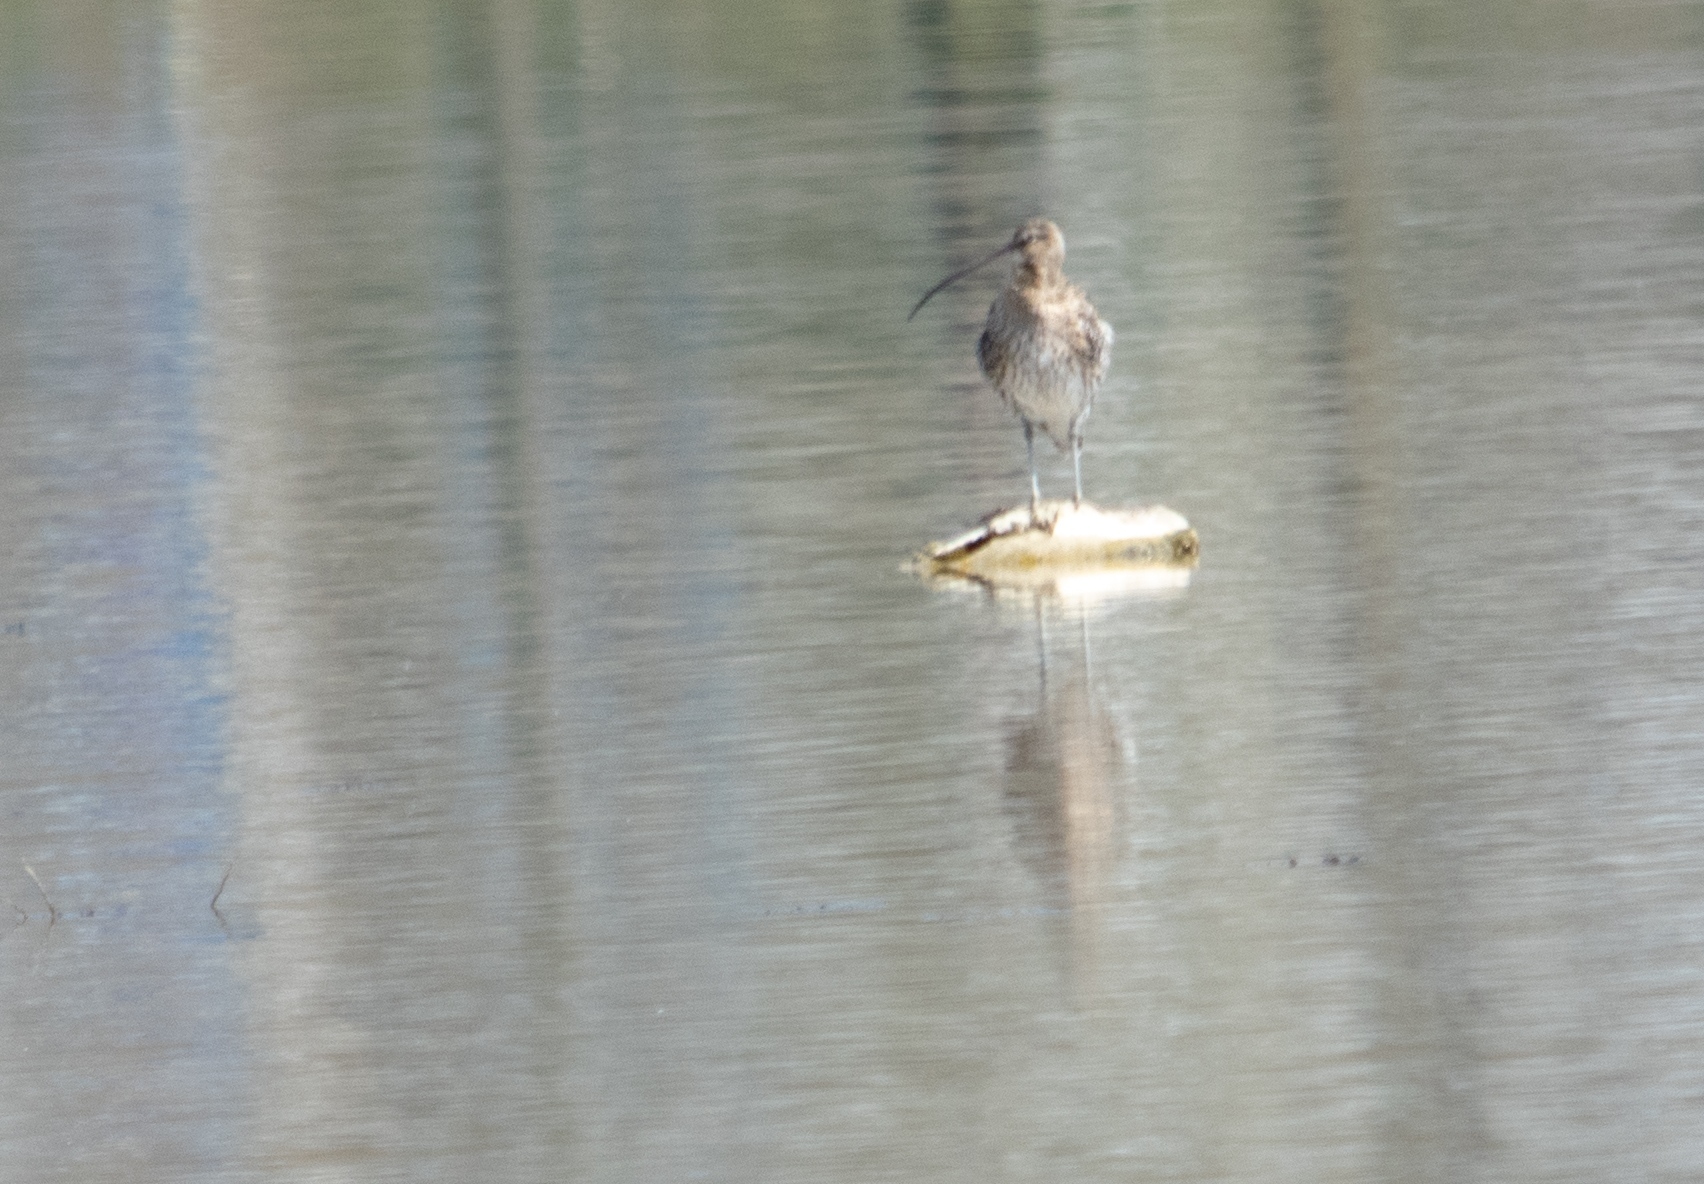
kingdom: Animalia
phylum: Chordata
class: Aves
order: Charadriiformes
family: Scolopacidae
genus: Numenius
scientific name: Numenius arquata
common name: Eurasian curlew
